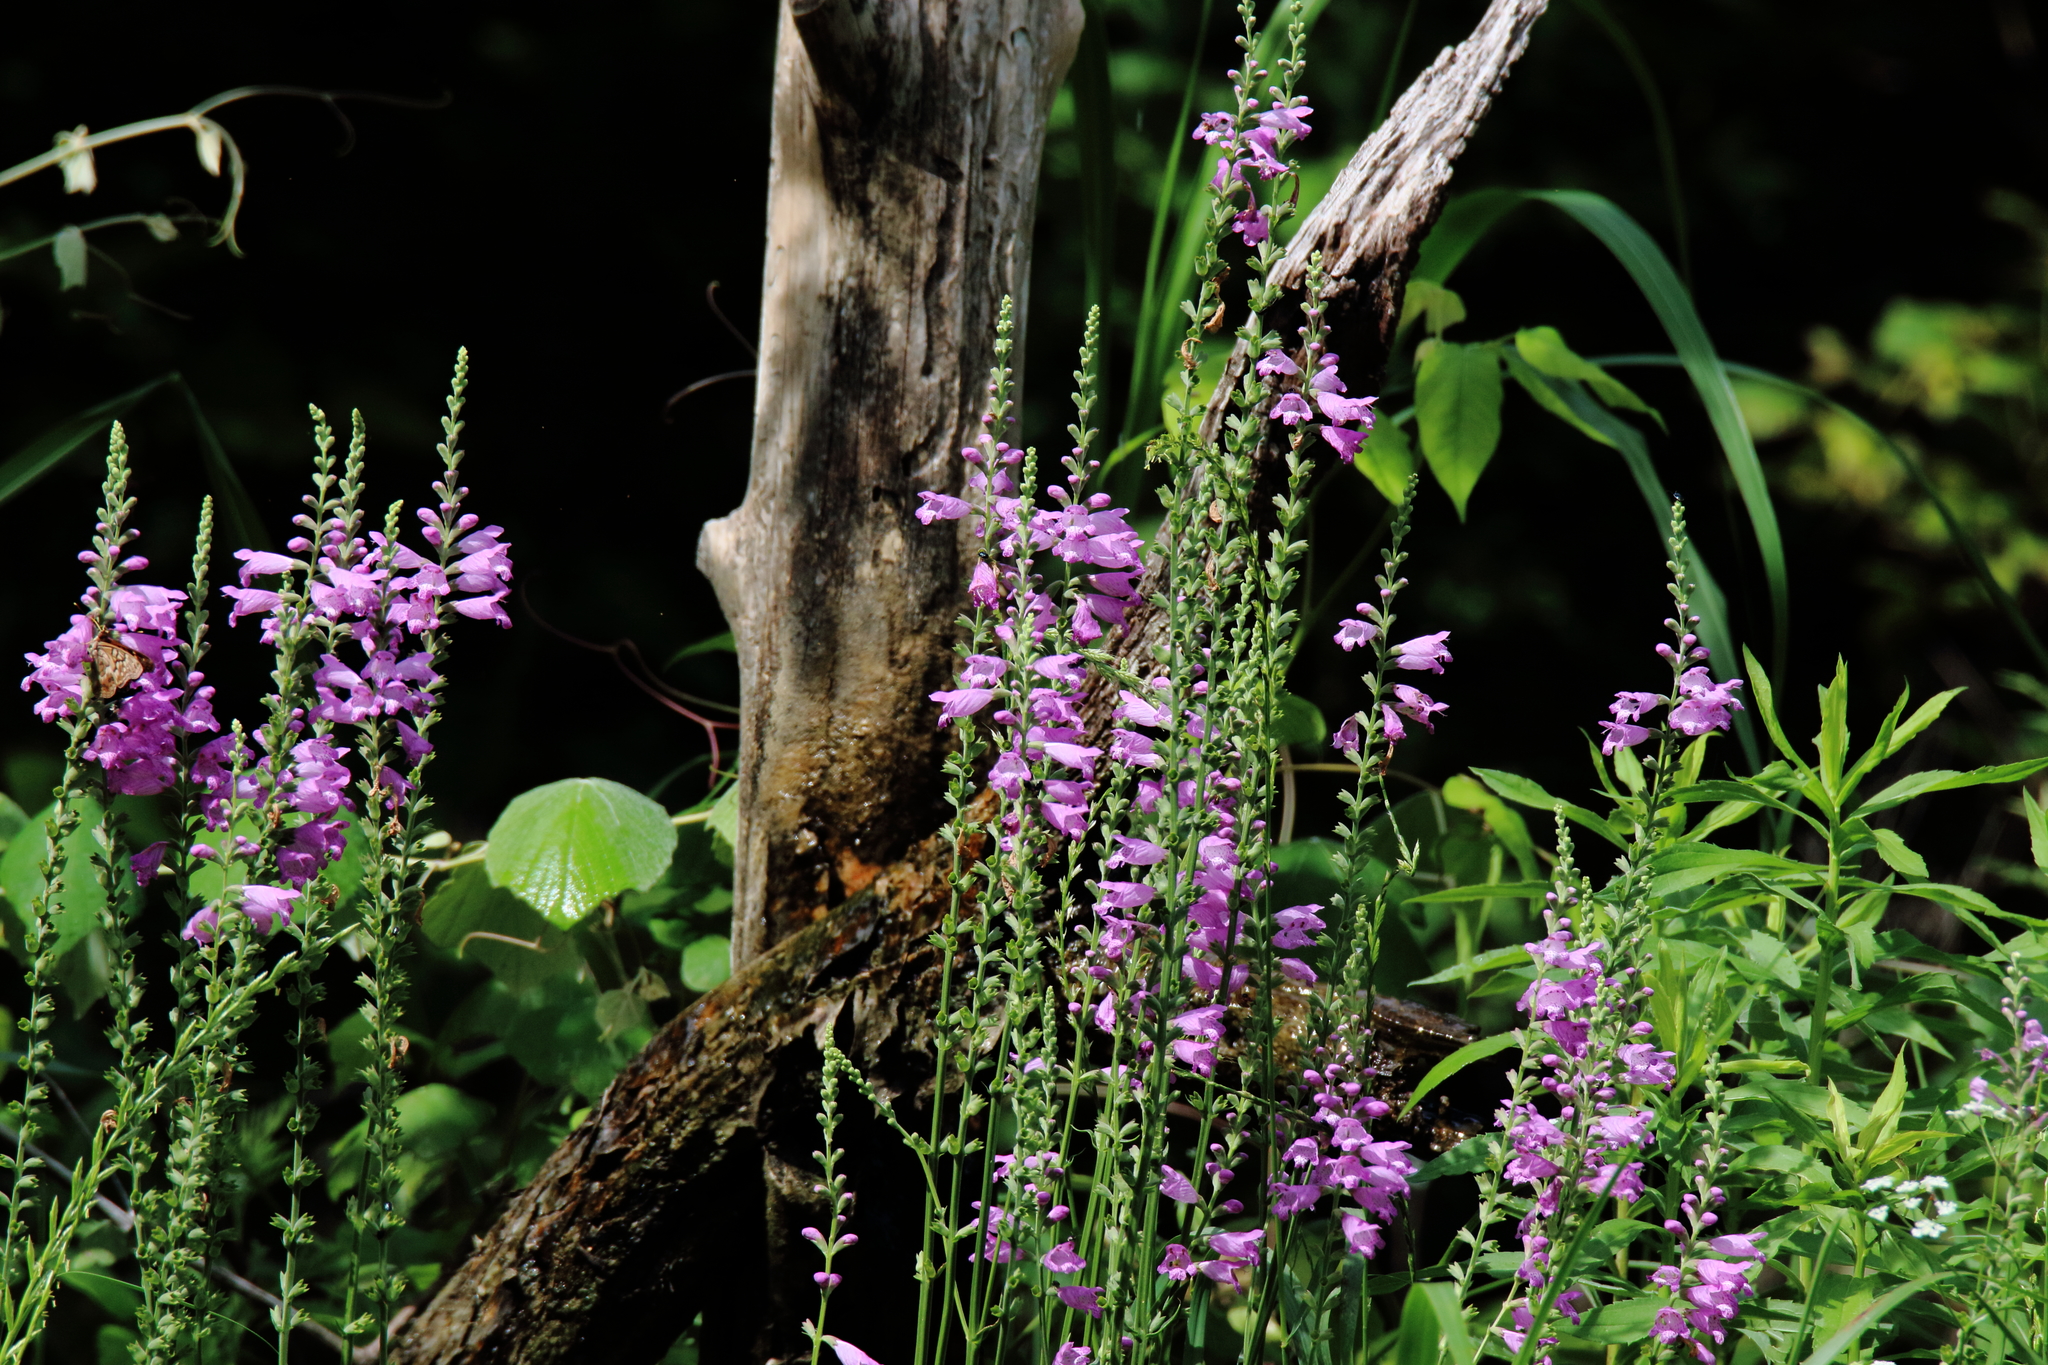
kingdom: Plantae
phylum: Tracheophyta
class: Magnoliopsida
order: Lamiales
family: Lamiaceae
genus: Physostegia
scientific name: Physostegia virginiana
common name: Obedient-plant
